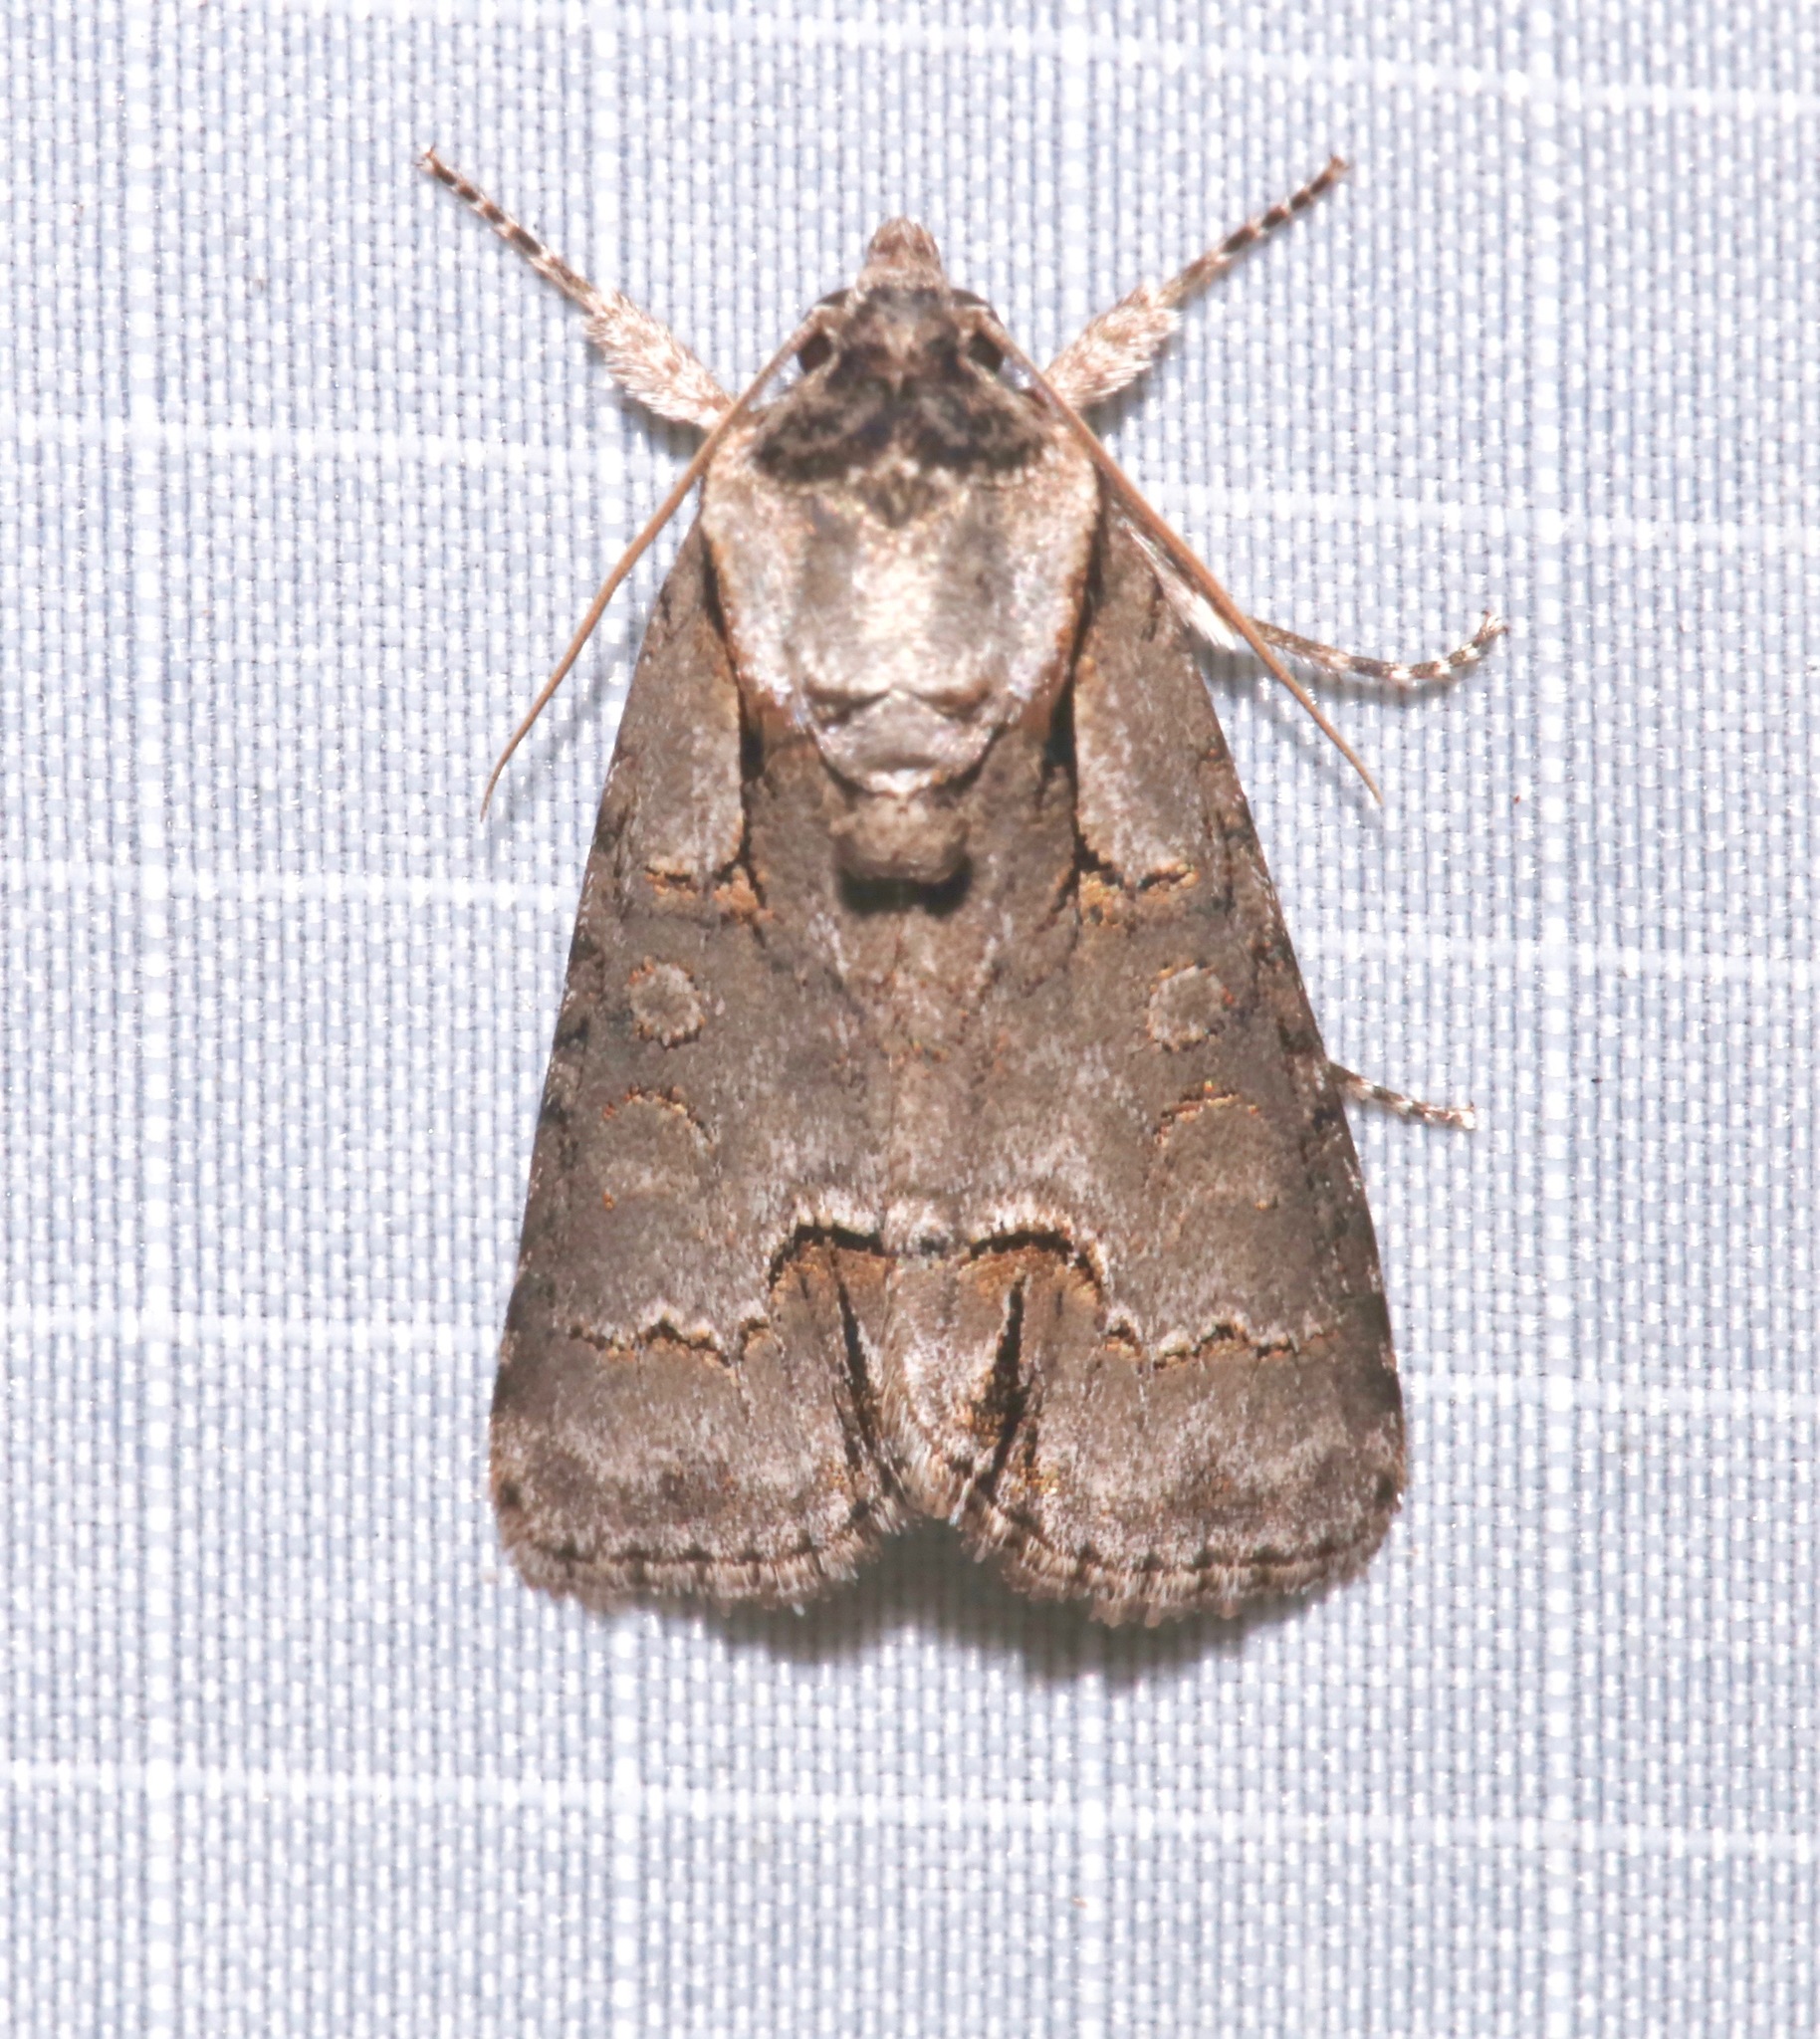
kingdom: Animalia
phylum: Arthropoda
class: Insecta
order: Lepidoptera
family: Noctuidae
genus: Acronicta
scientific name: Acronicta parallela
